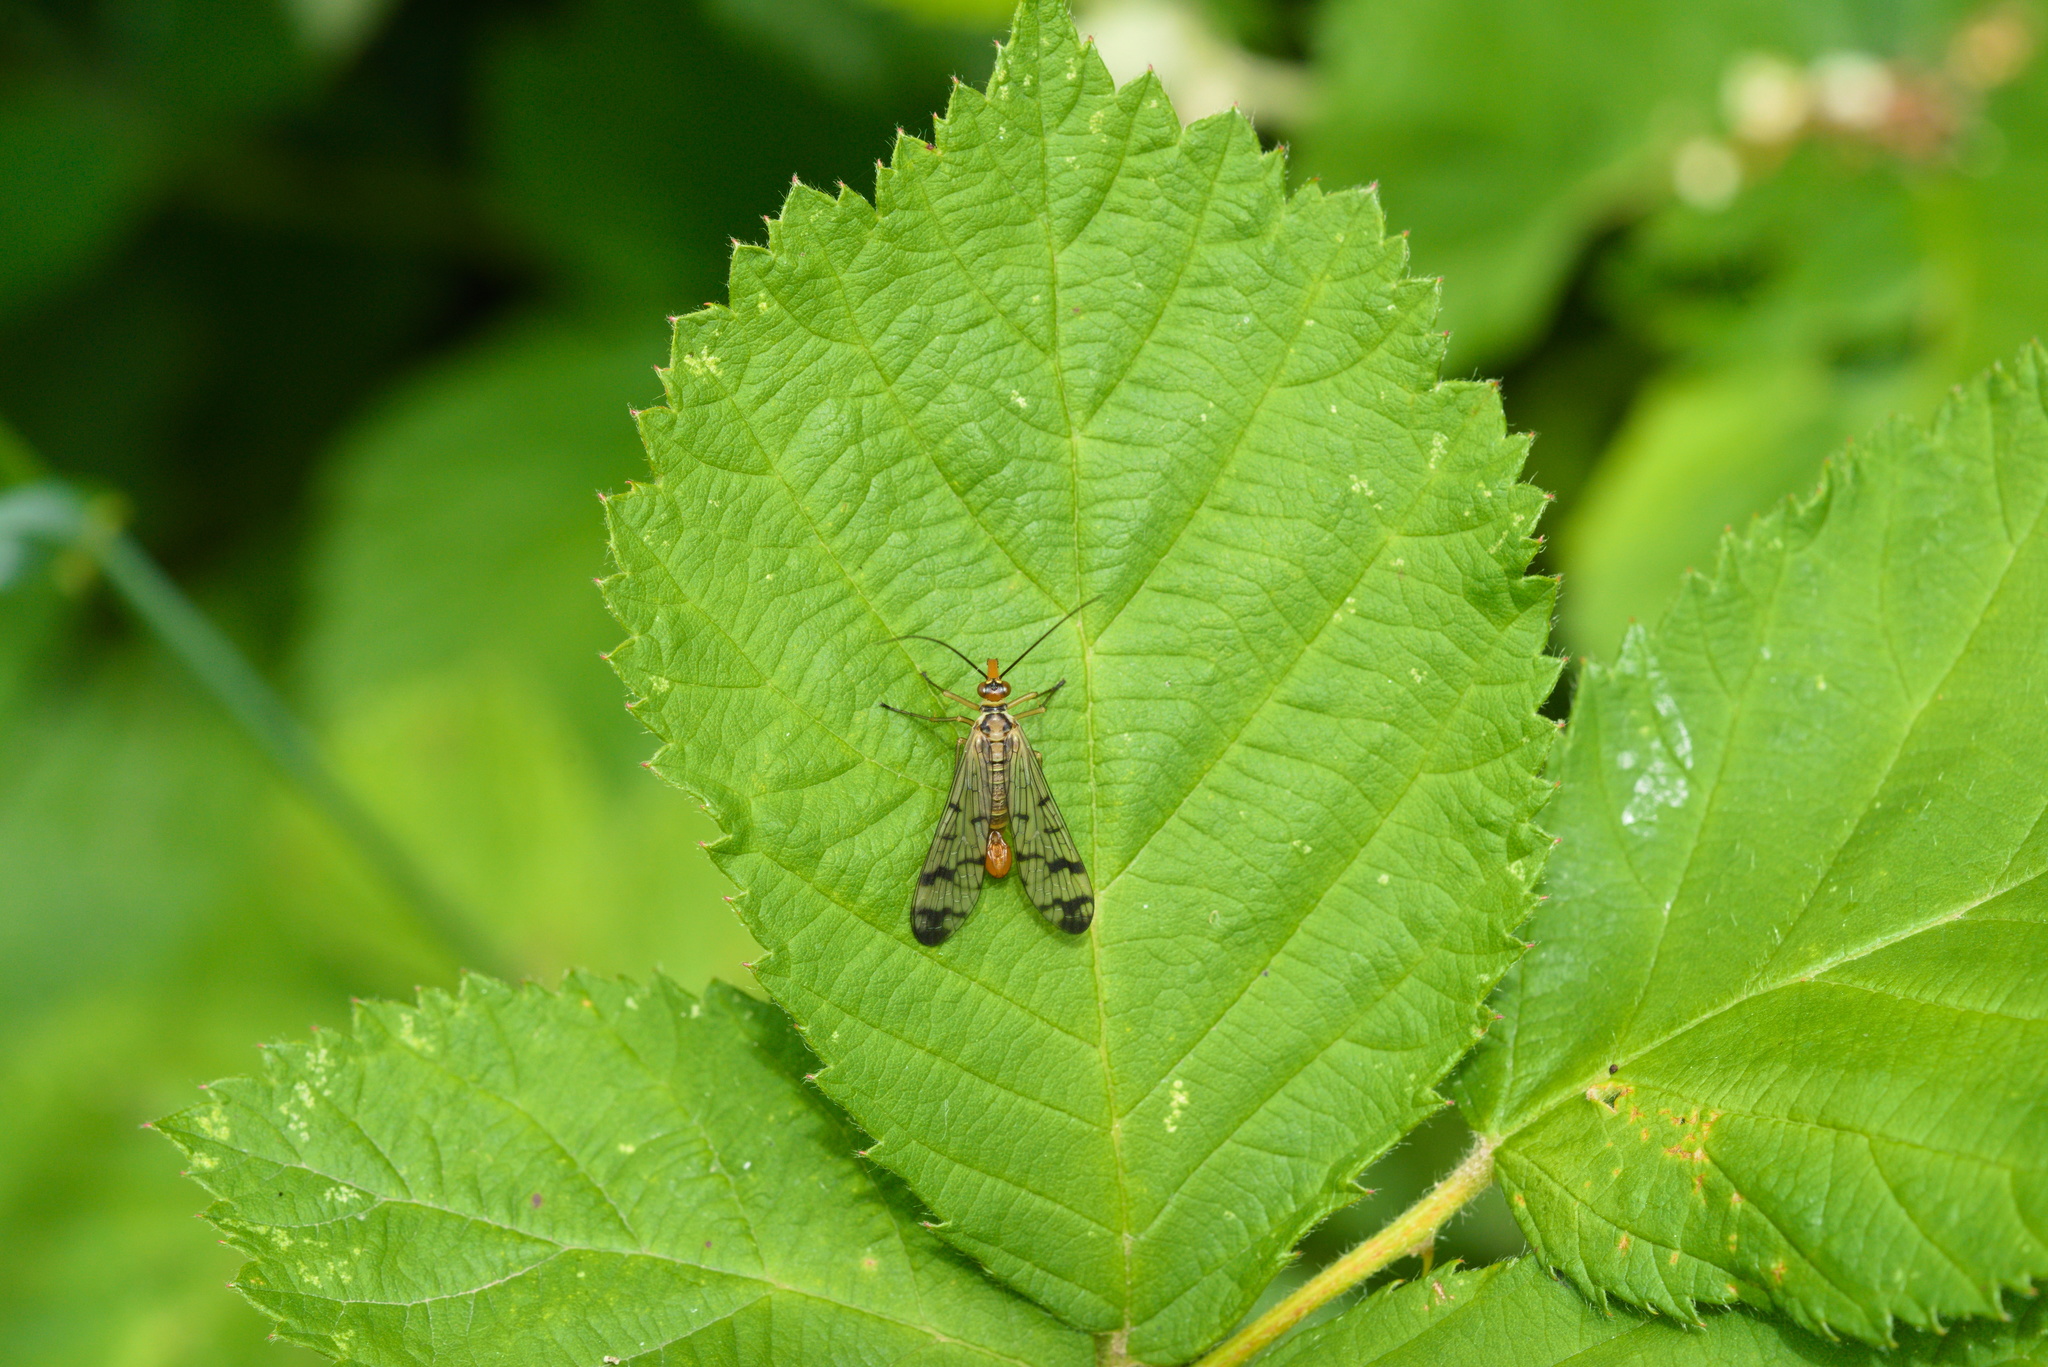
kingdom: Animalia
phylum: Arthropoda
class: Insecta
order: Mecoptera
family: Panorpidae
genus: Panorpa
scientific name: Panorpa cognata
